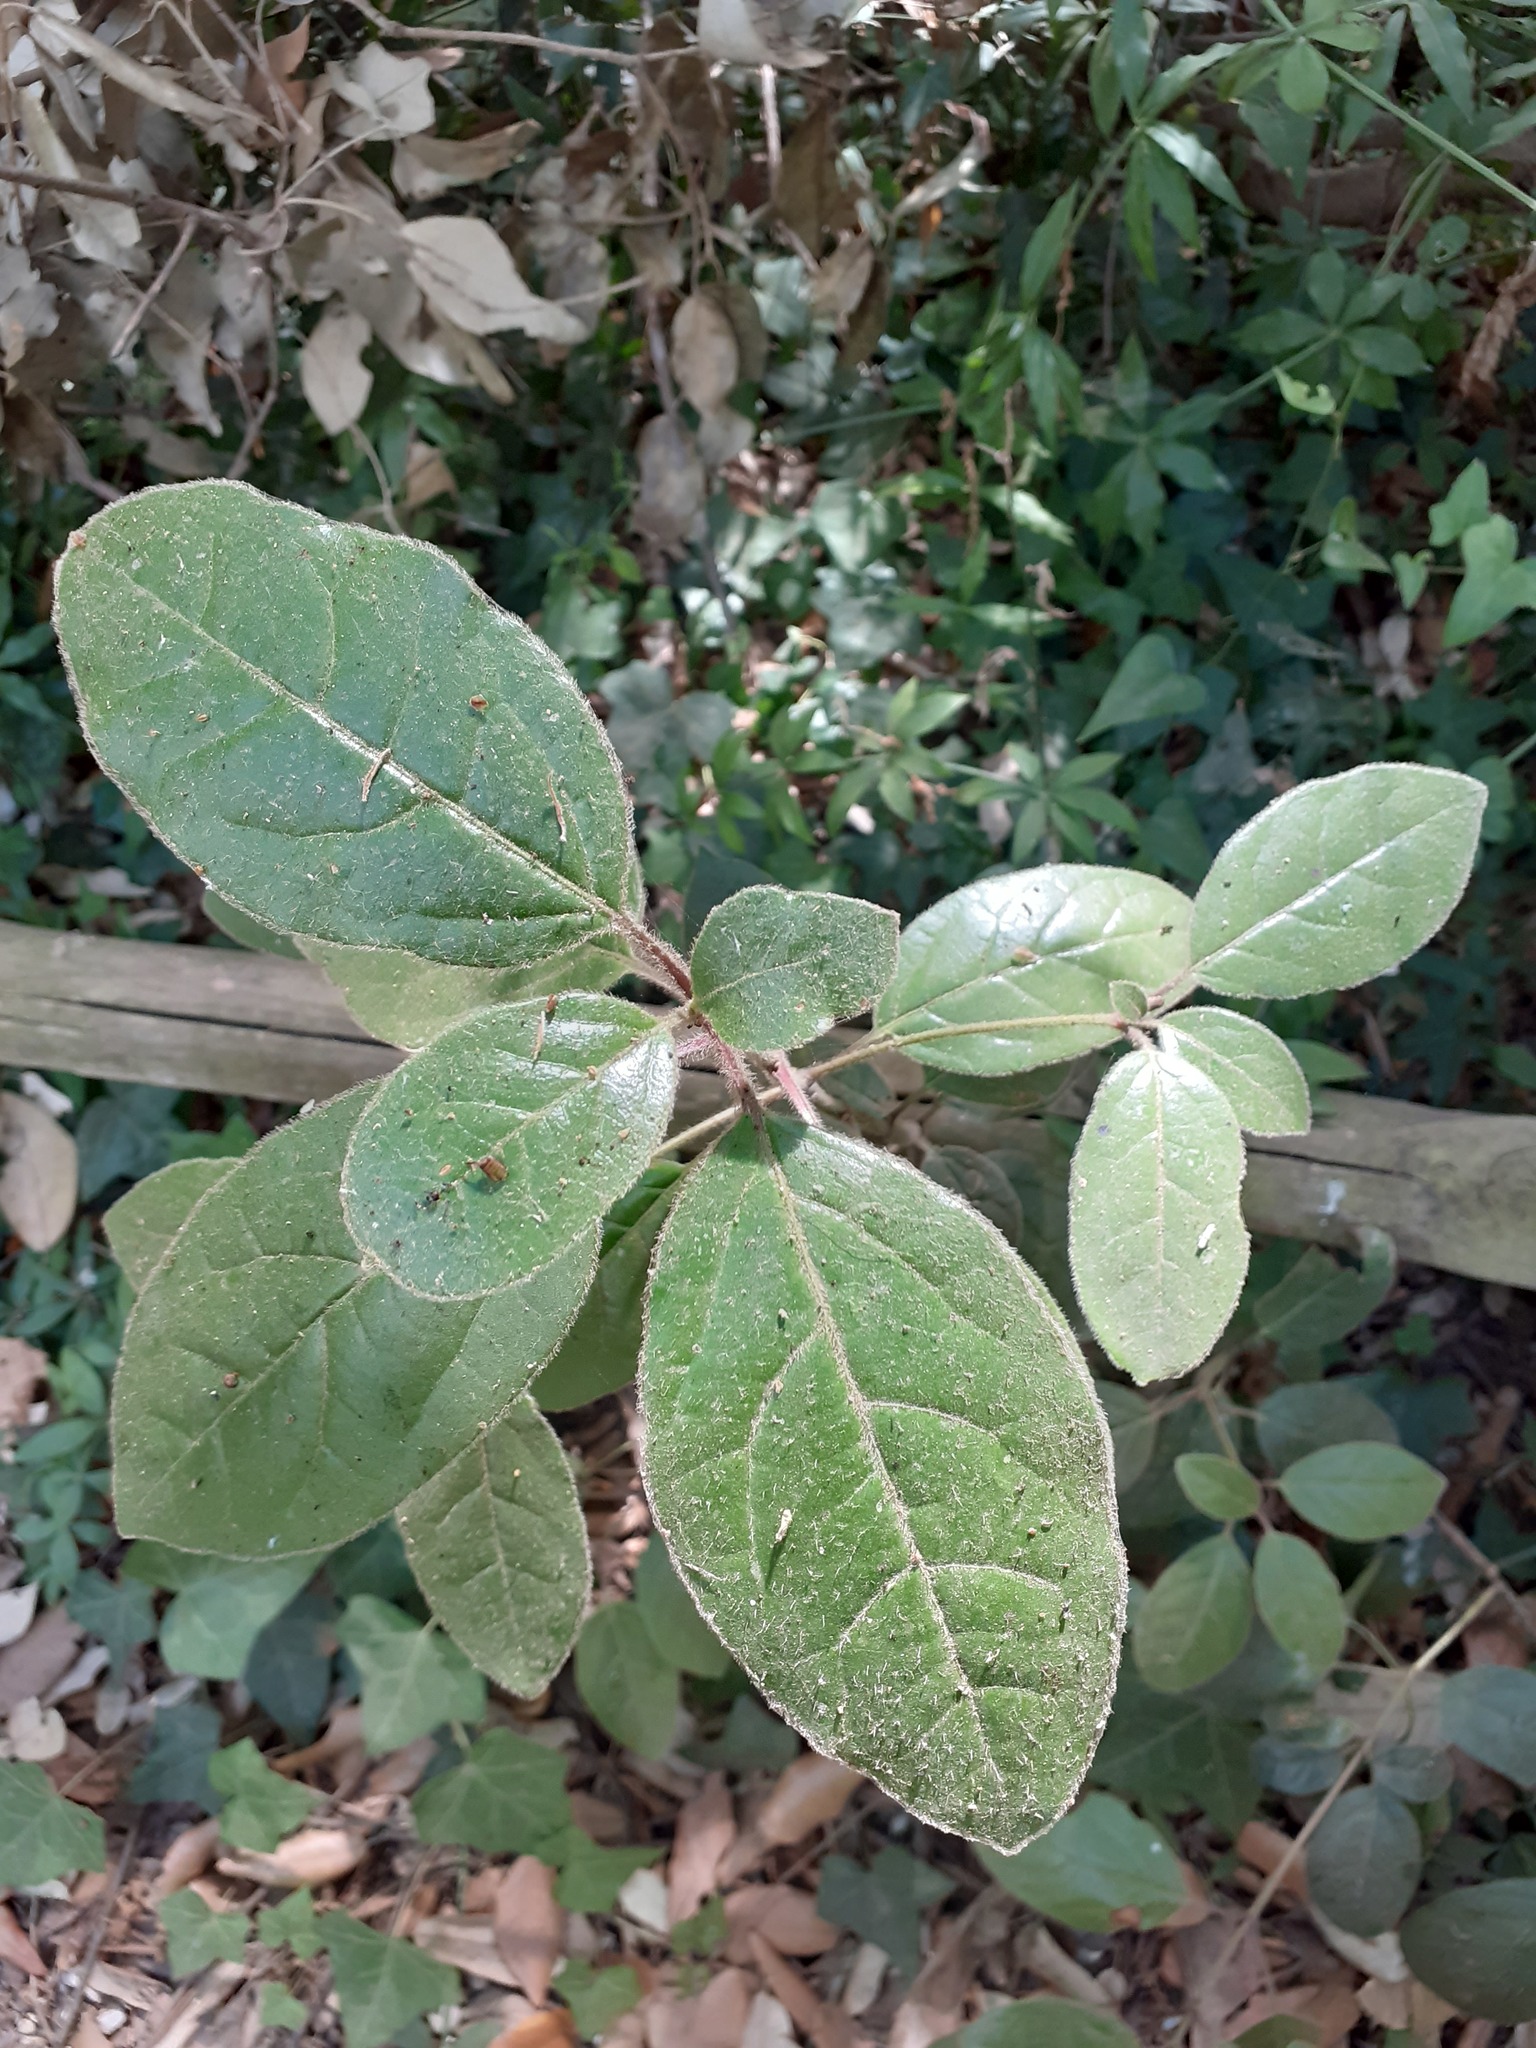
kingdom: Plantae
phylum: Tracheophyta
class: Magnoliopsida
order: Dipsacales
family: Viburnaceae
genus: Viburnum
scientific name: Viburnum tinus
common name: Laurustinus
